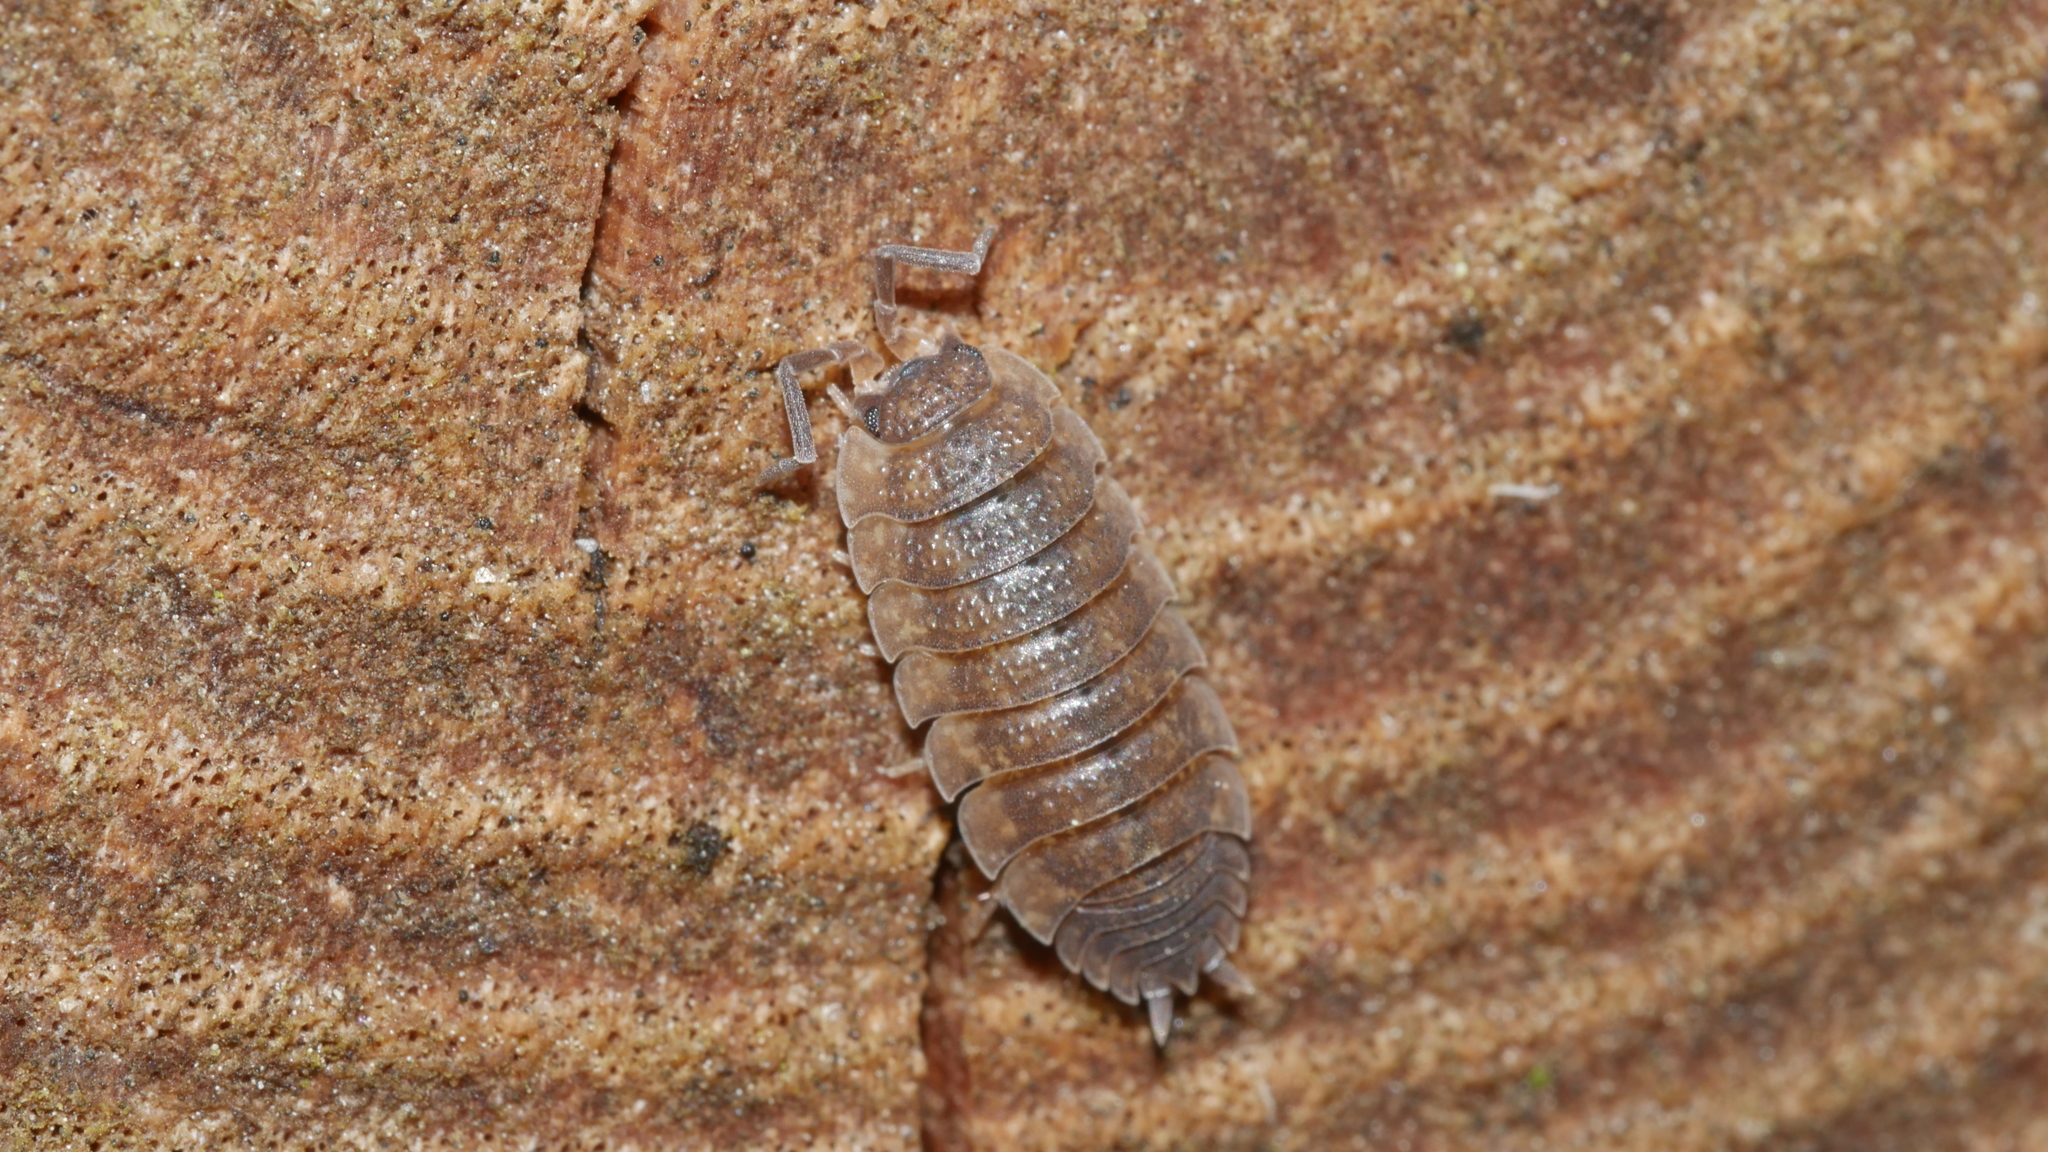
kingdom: Animalia
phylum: Arthropoda
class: Malacostraca
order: Isopoda
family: Porcellionidae
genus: Porcellio
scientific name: Porcellio scaber
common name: Common rough woodlouse
